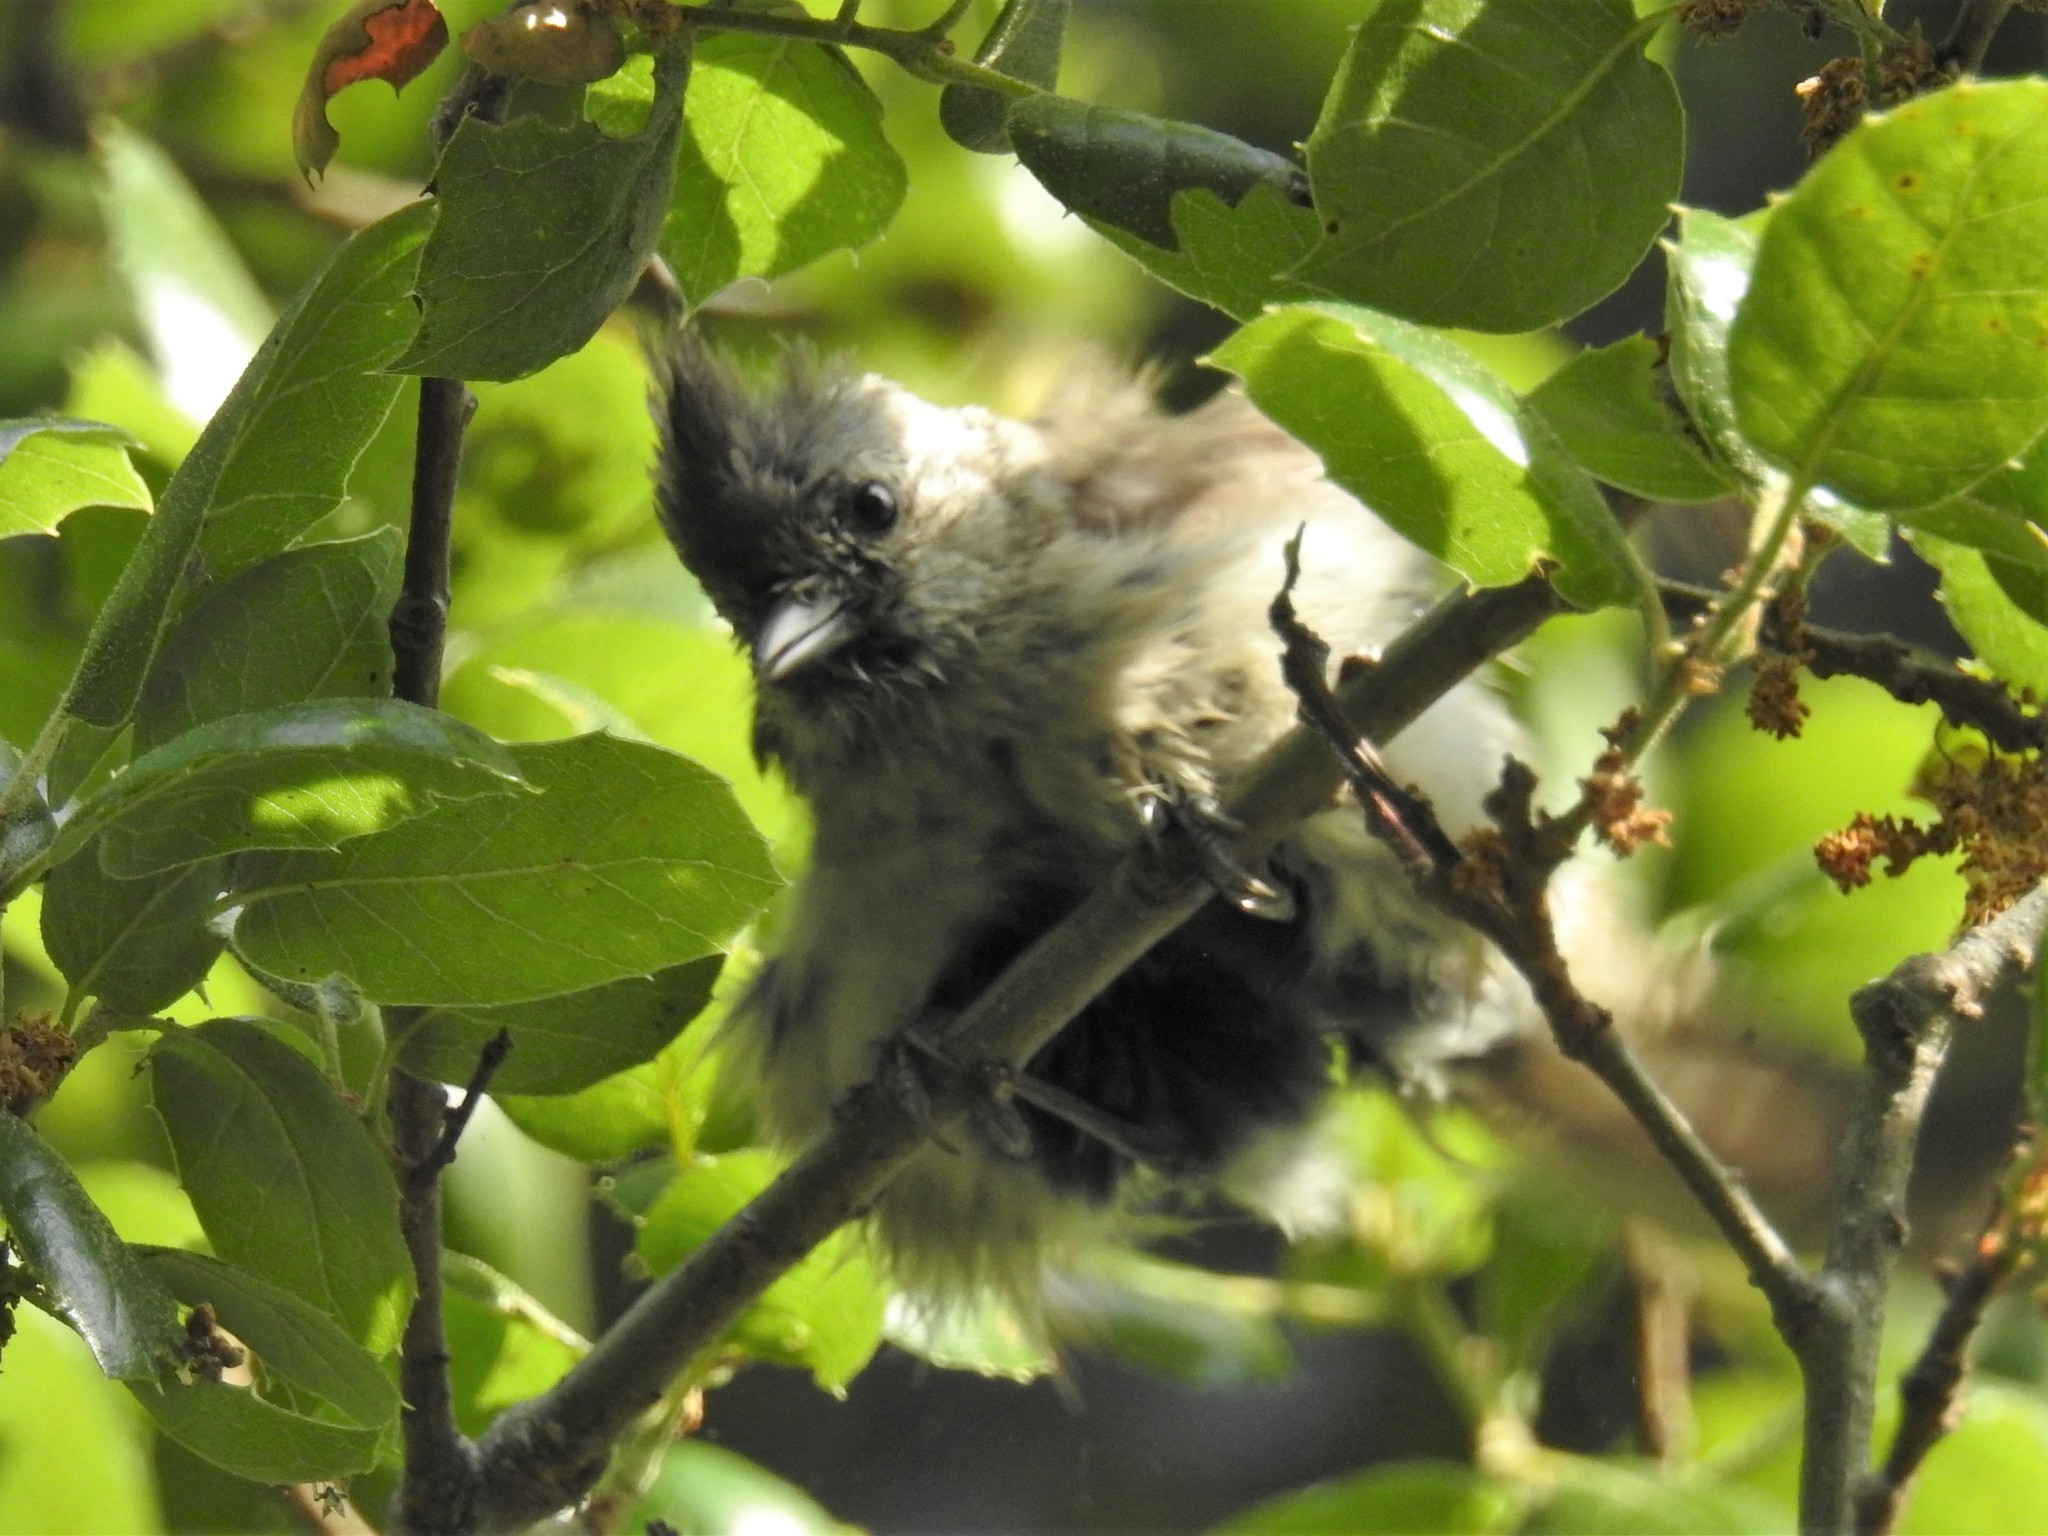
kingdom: Animalia
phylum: Chordata
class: Aves
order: Passeriformes
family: Paridae
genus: Baeolophus
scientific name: Baeolophus inornatus
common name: Oak titmouse
